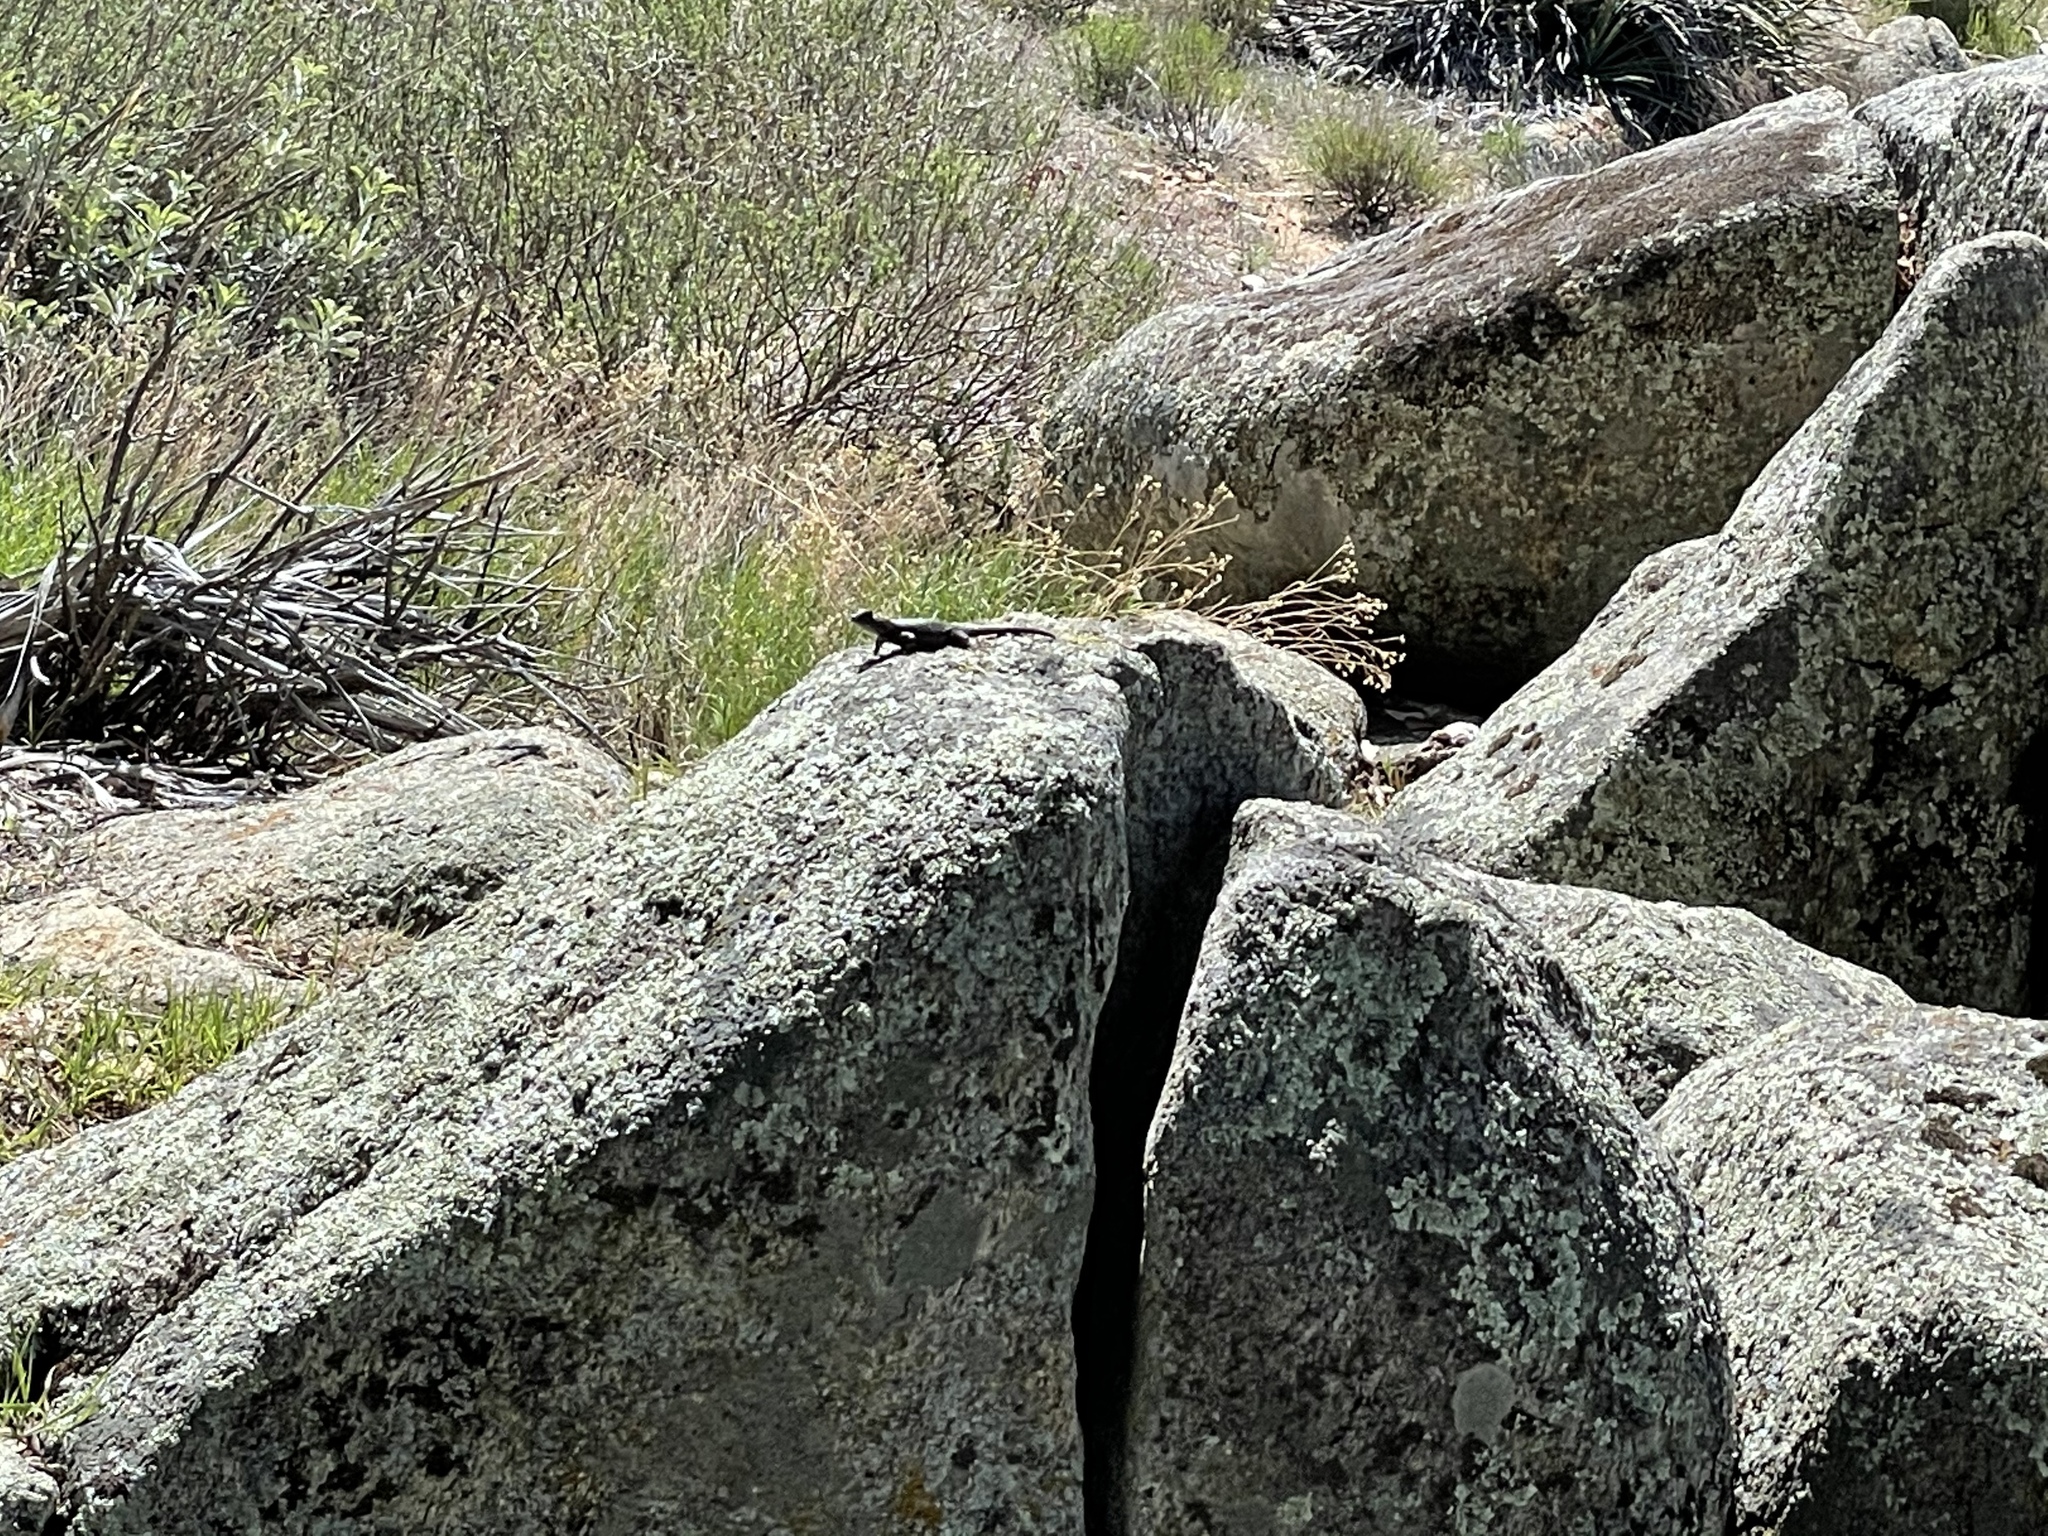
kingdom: Animalia
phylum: Chordata
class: Squamata
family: Phrynosomatidae
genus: Sceloporus
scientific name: Sceloporus occidentalis
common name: Western fence lizard
